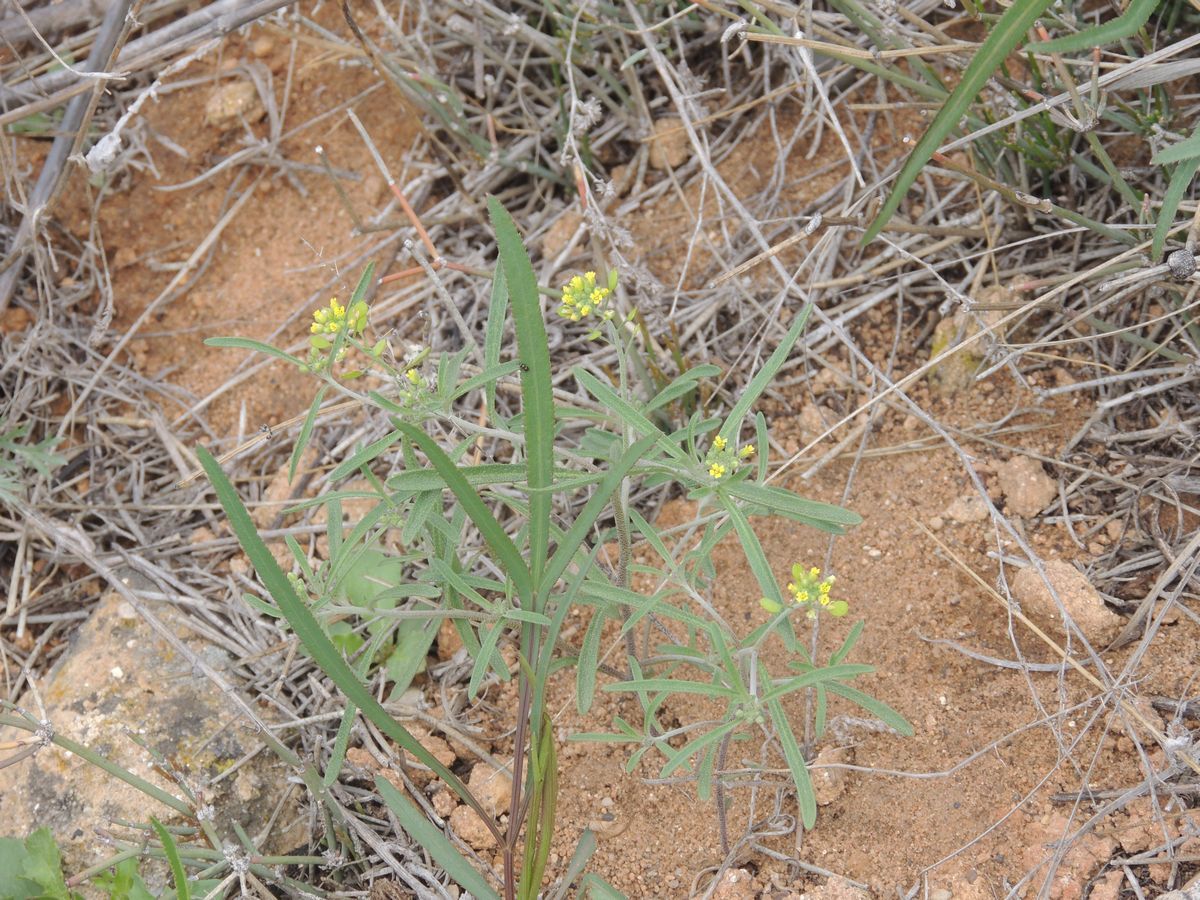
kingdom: Plantae
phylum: Tracheophyta
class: Magnoliopsida
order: Brassicales
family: Brassicaceae
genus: Meniocus
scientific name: Meniocus linifolius
